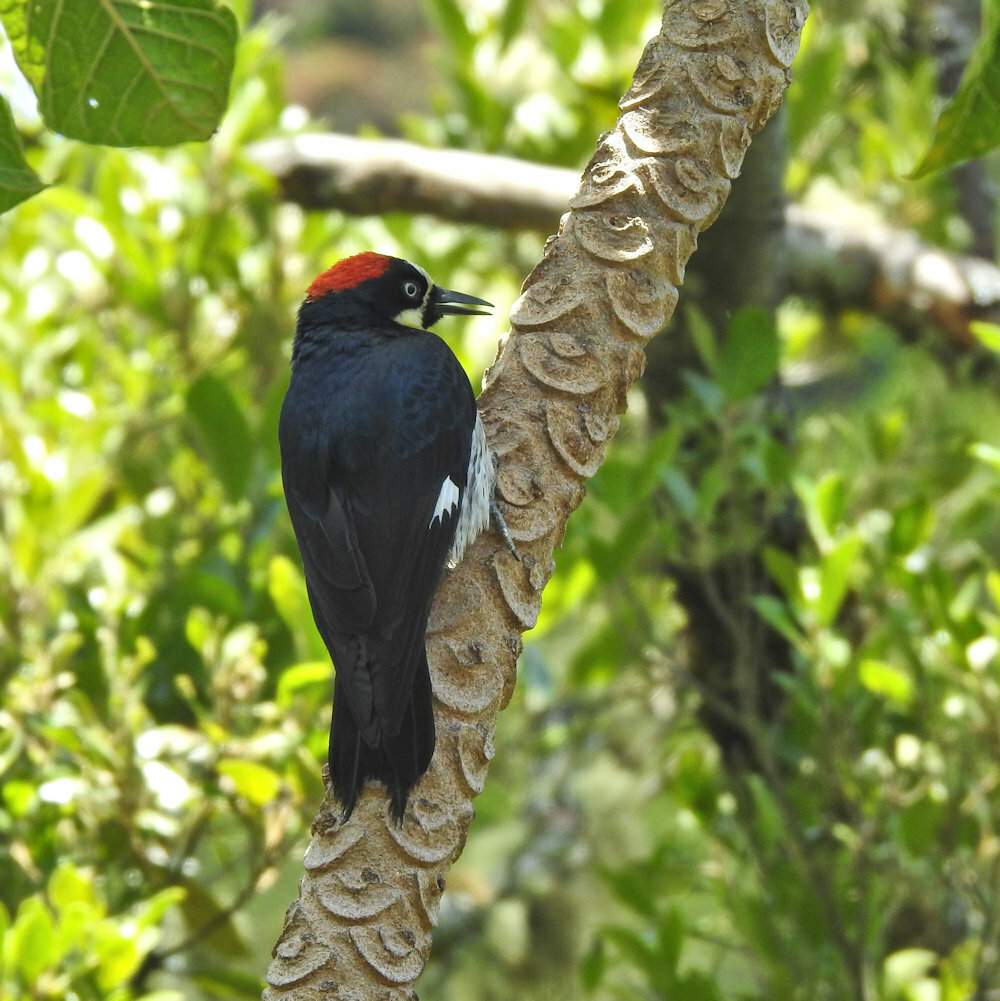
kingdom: Animalia
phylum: Chordata
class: Aves
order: Piciformes
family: Picidae
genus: Melanerpes
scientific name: Melanerpes formicivorus
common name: Acorn woodpecker
